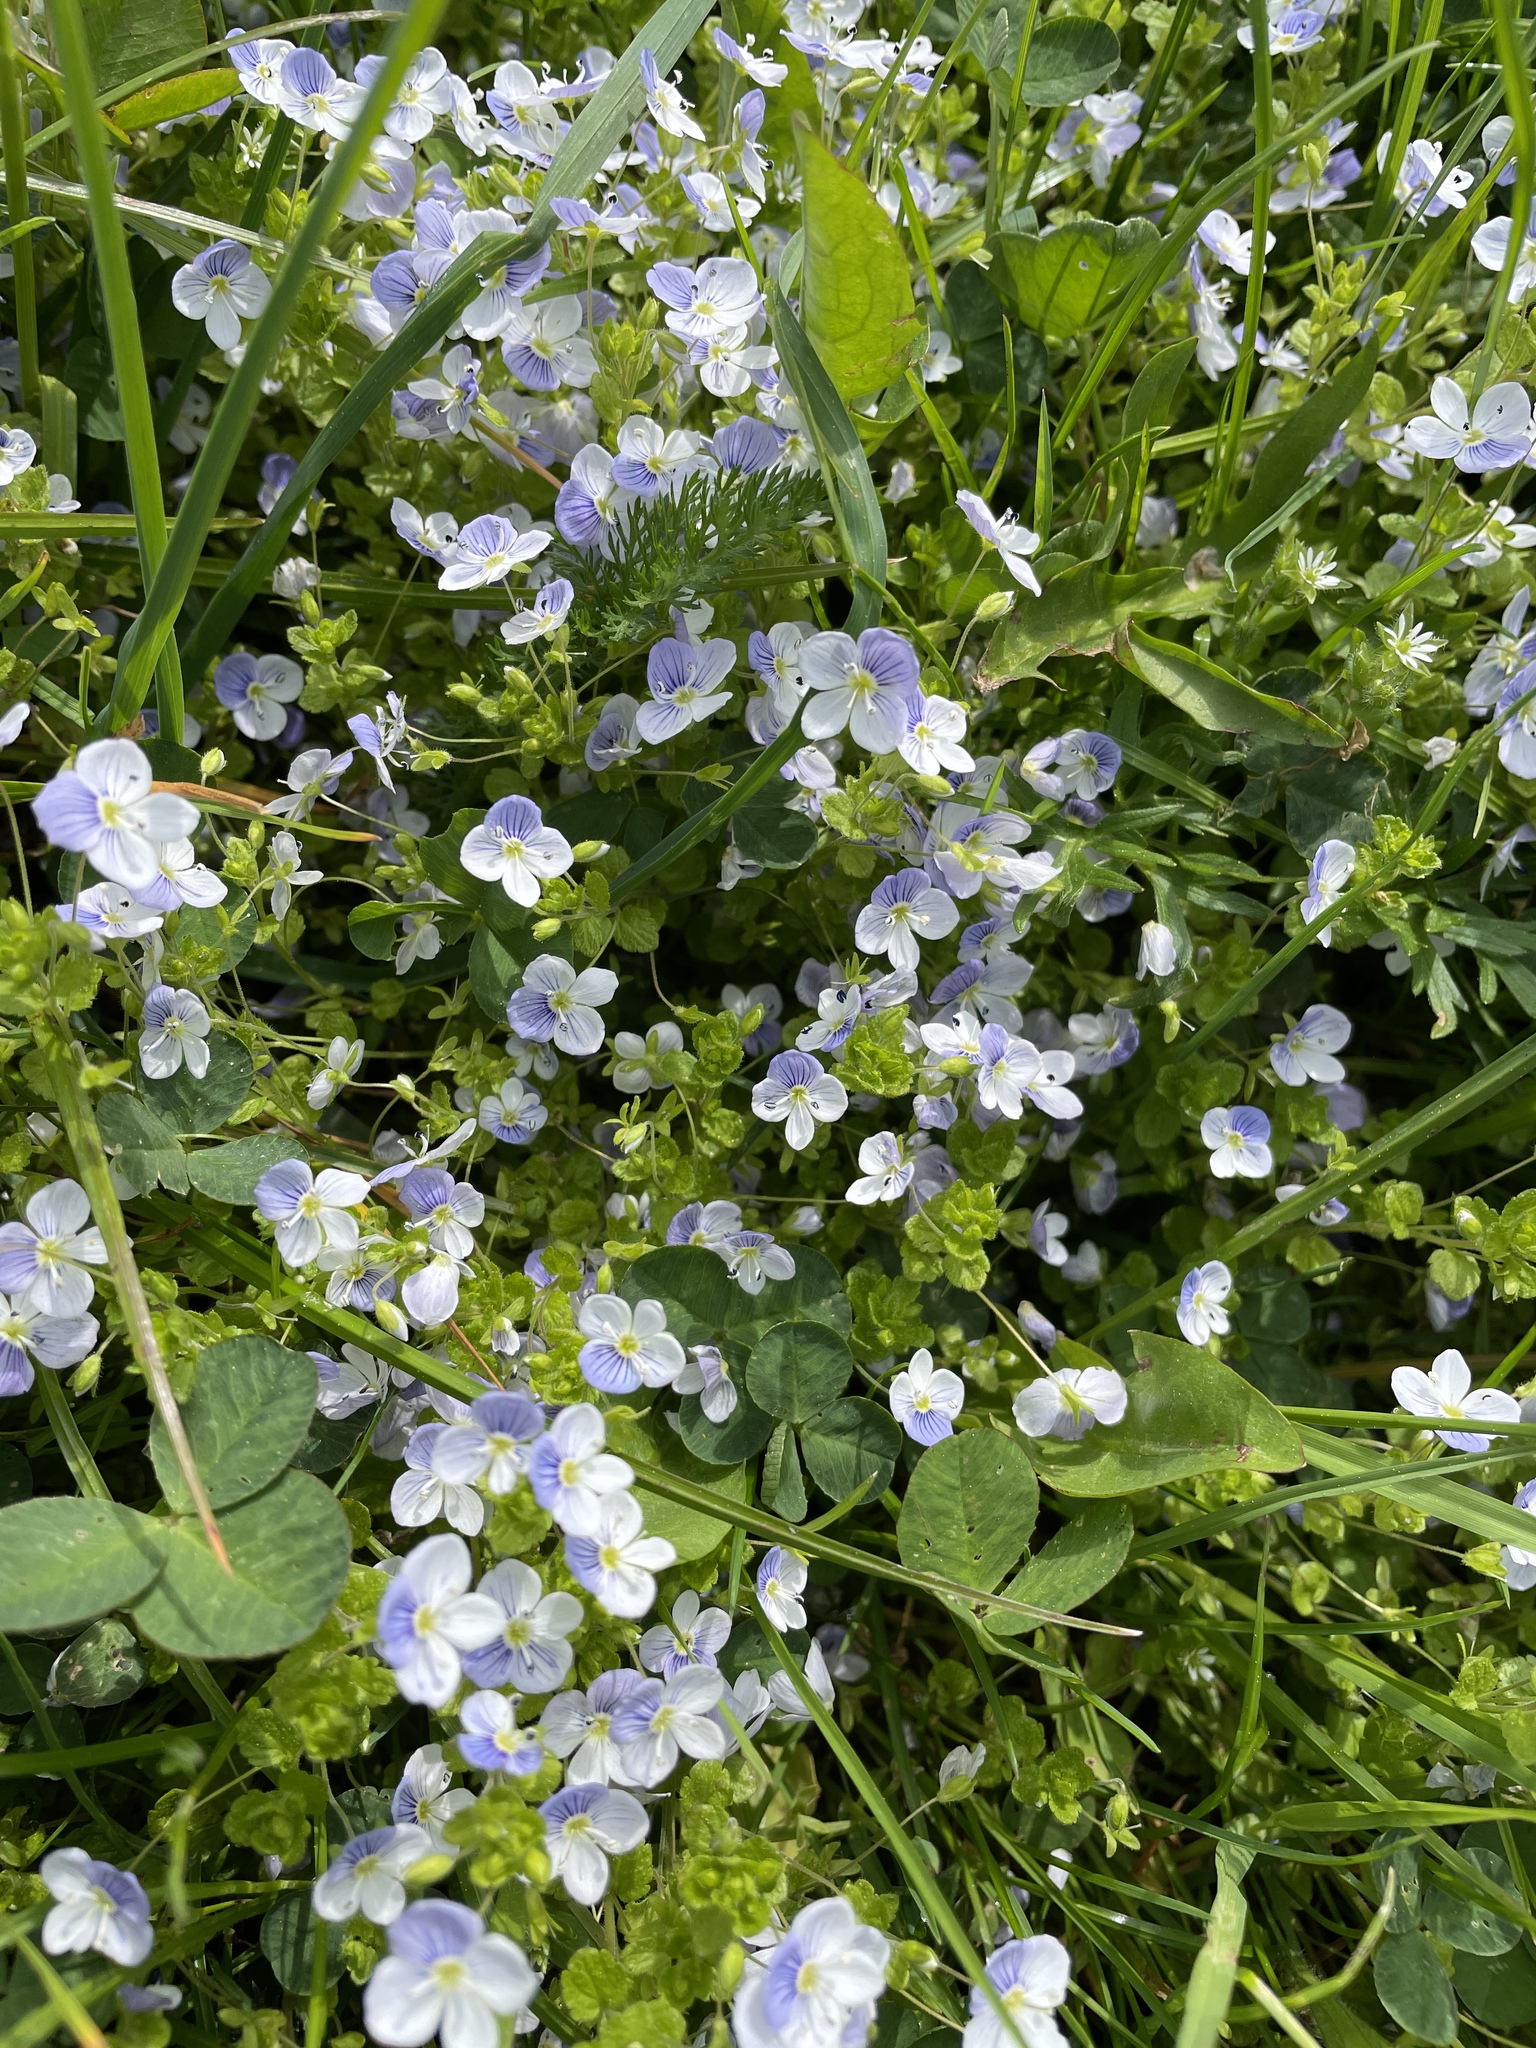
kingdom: Plantae
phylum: Tracheophyta
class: Magnoliopsida
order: Lamiales
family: Plantaginaceae
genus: Veronica
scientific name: Veronica filiformis
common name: Slender speedwell
